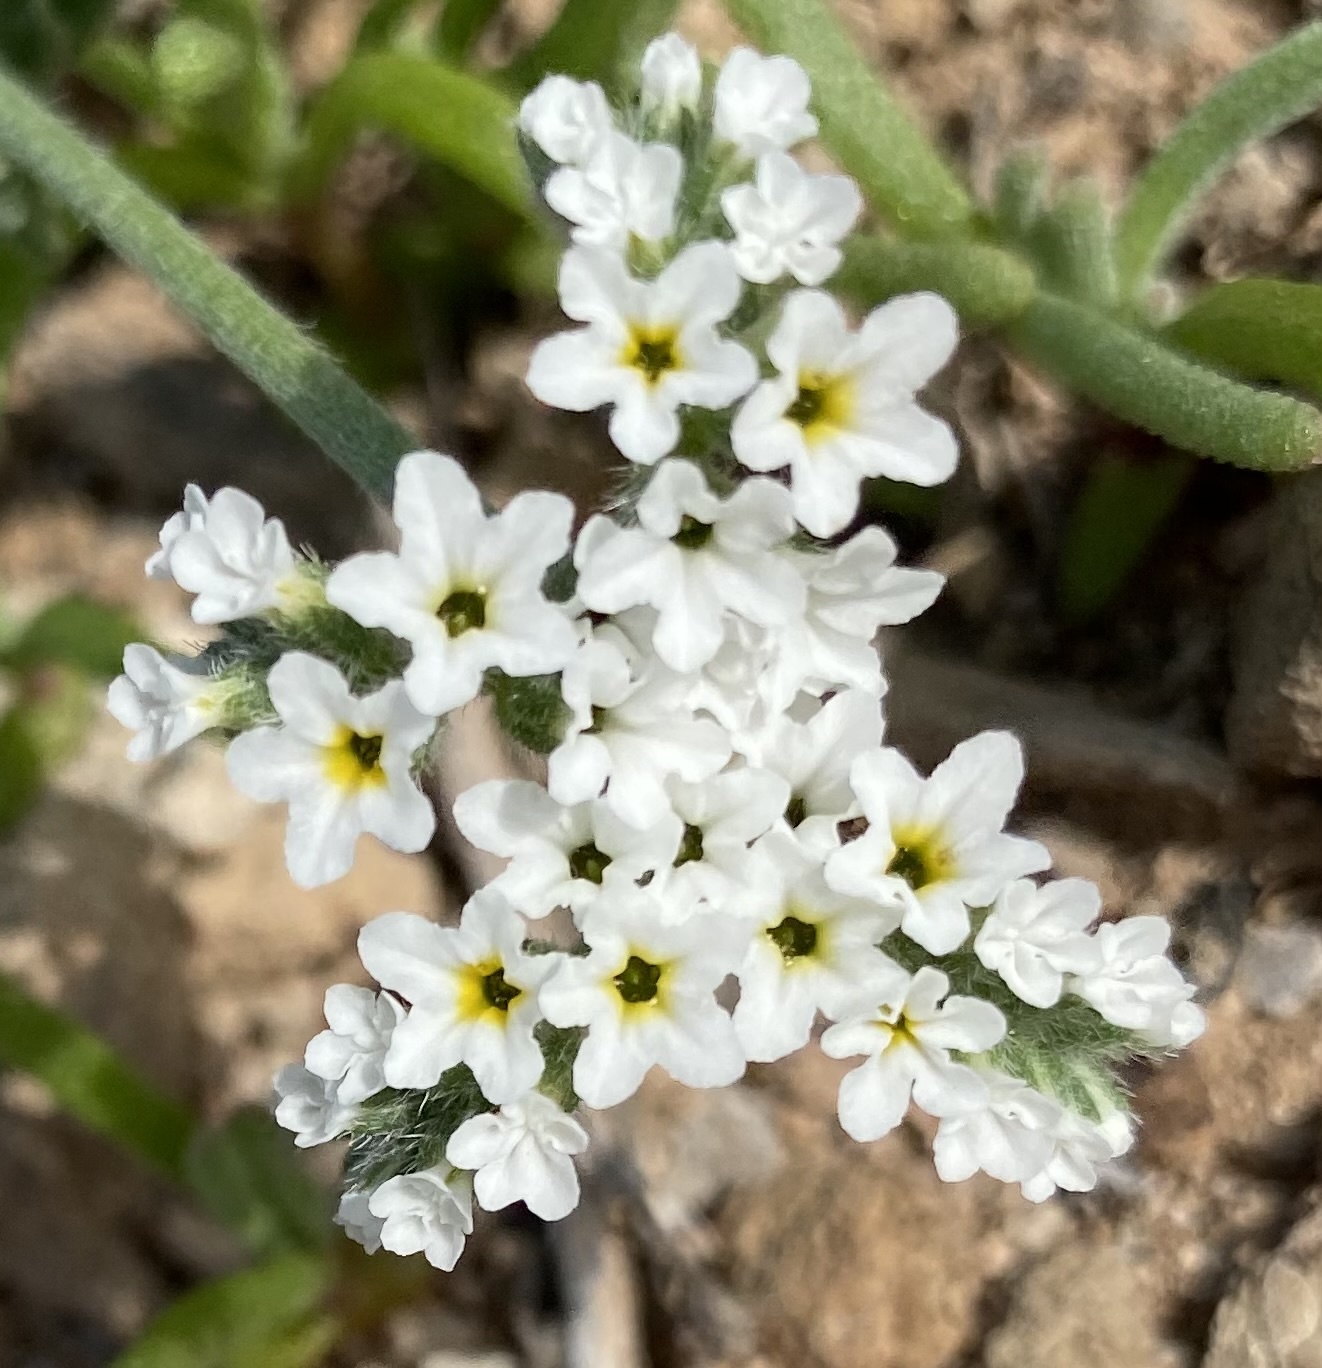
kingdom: Plantae
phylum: Tracheophyta
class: Magnoliopsida
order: Boraginales
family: Heliotropiaceae
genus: Heliotropium
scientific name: Heliotropium ramosissimum
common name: Wavy heliotrope
